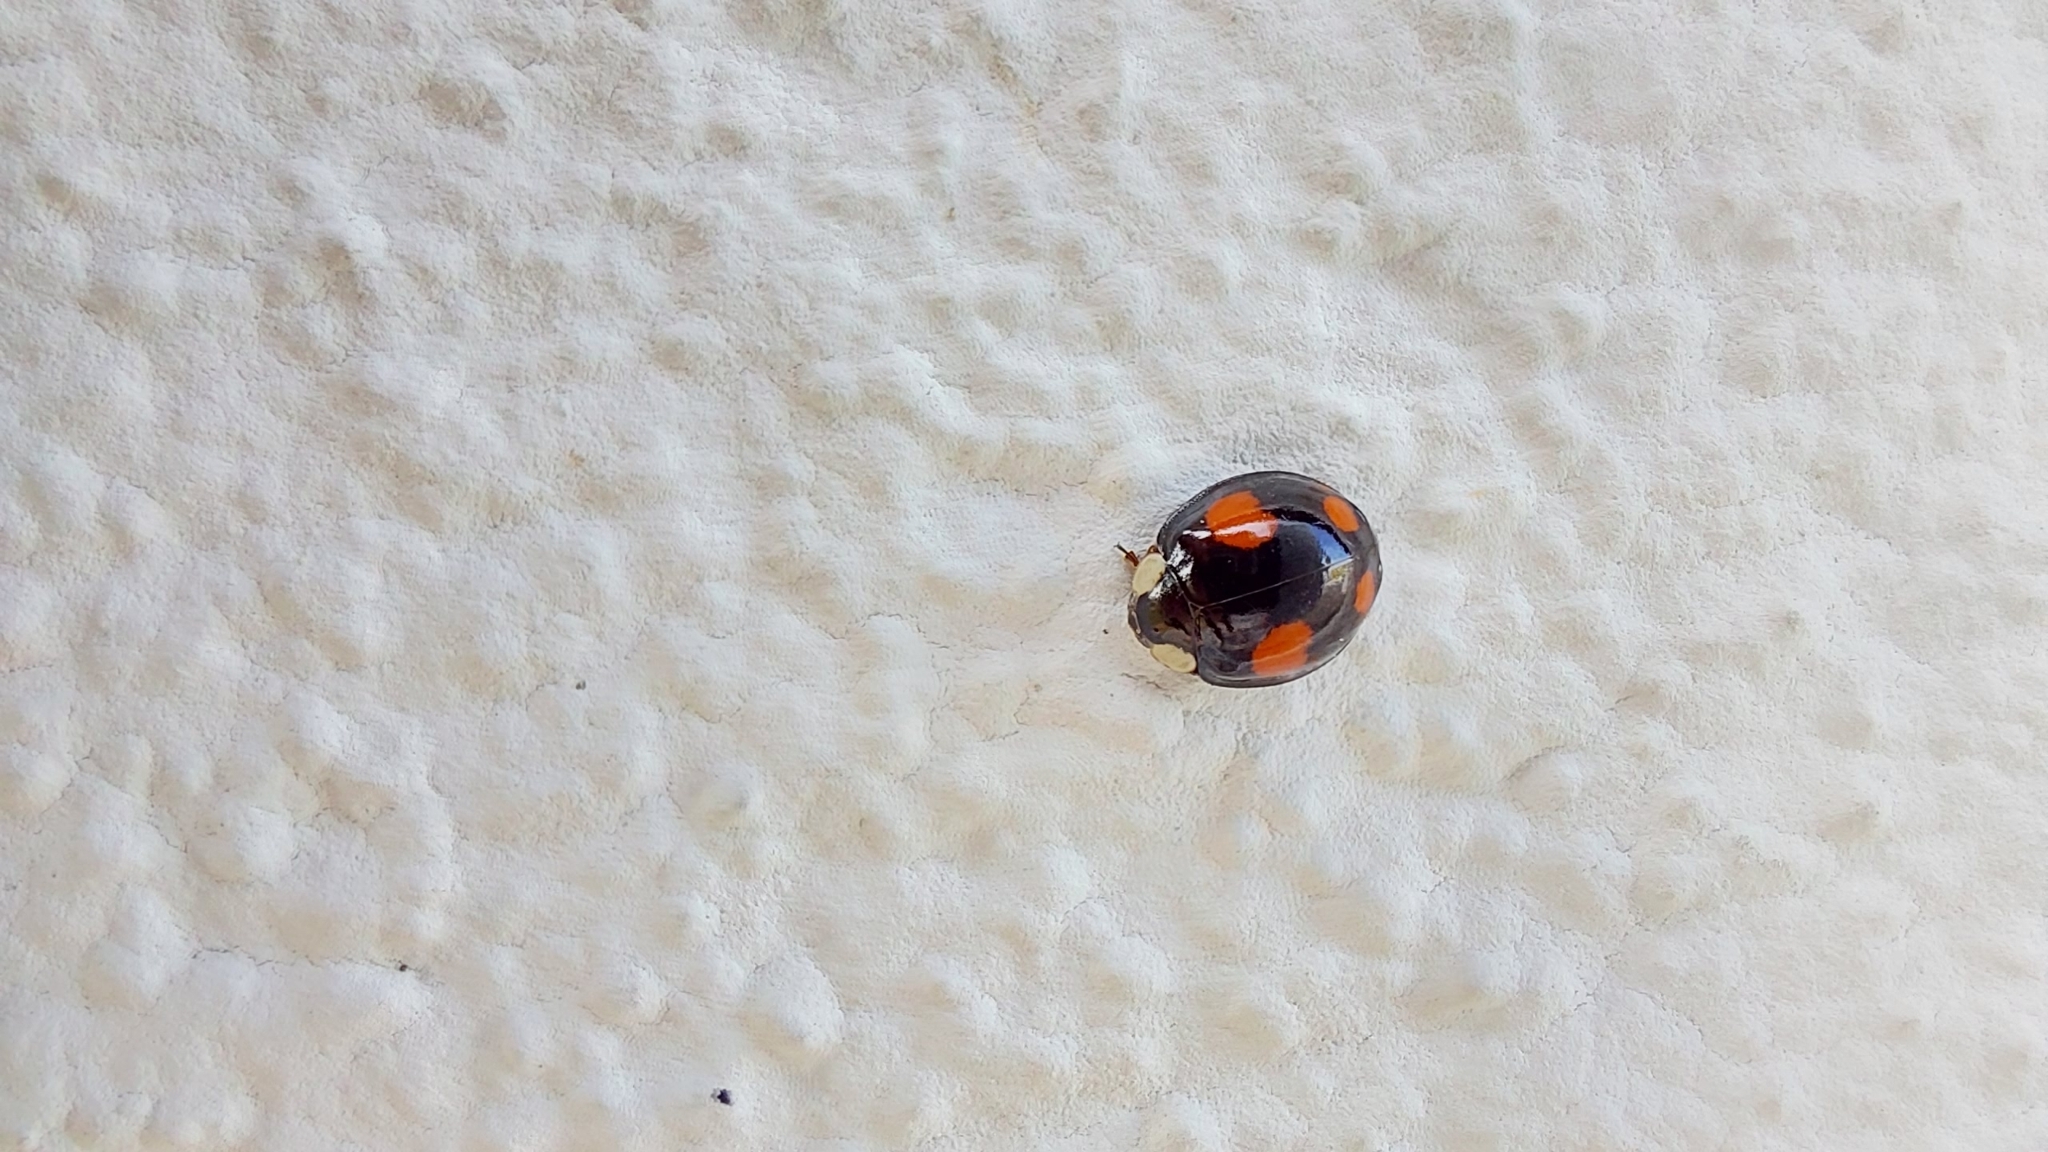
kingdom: Animalia
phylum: Arthropoda
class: Insecta
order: Coleoptera
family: Coccinellidae
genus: Harmonia
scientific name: Harmonia axyridis
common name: Harlequin ladybird
